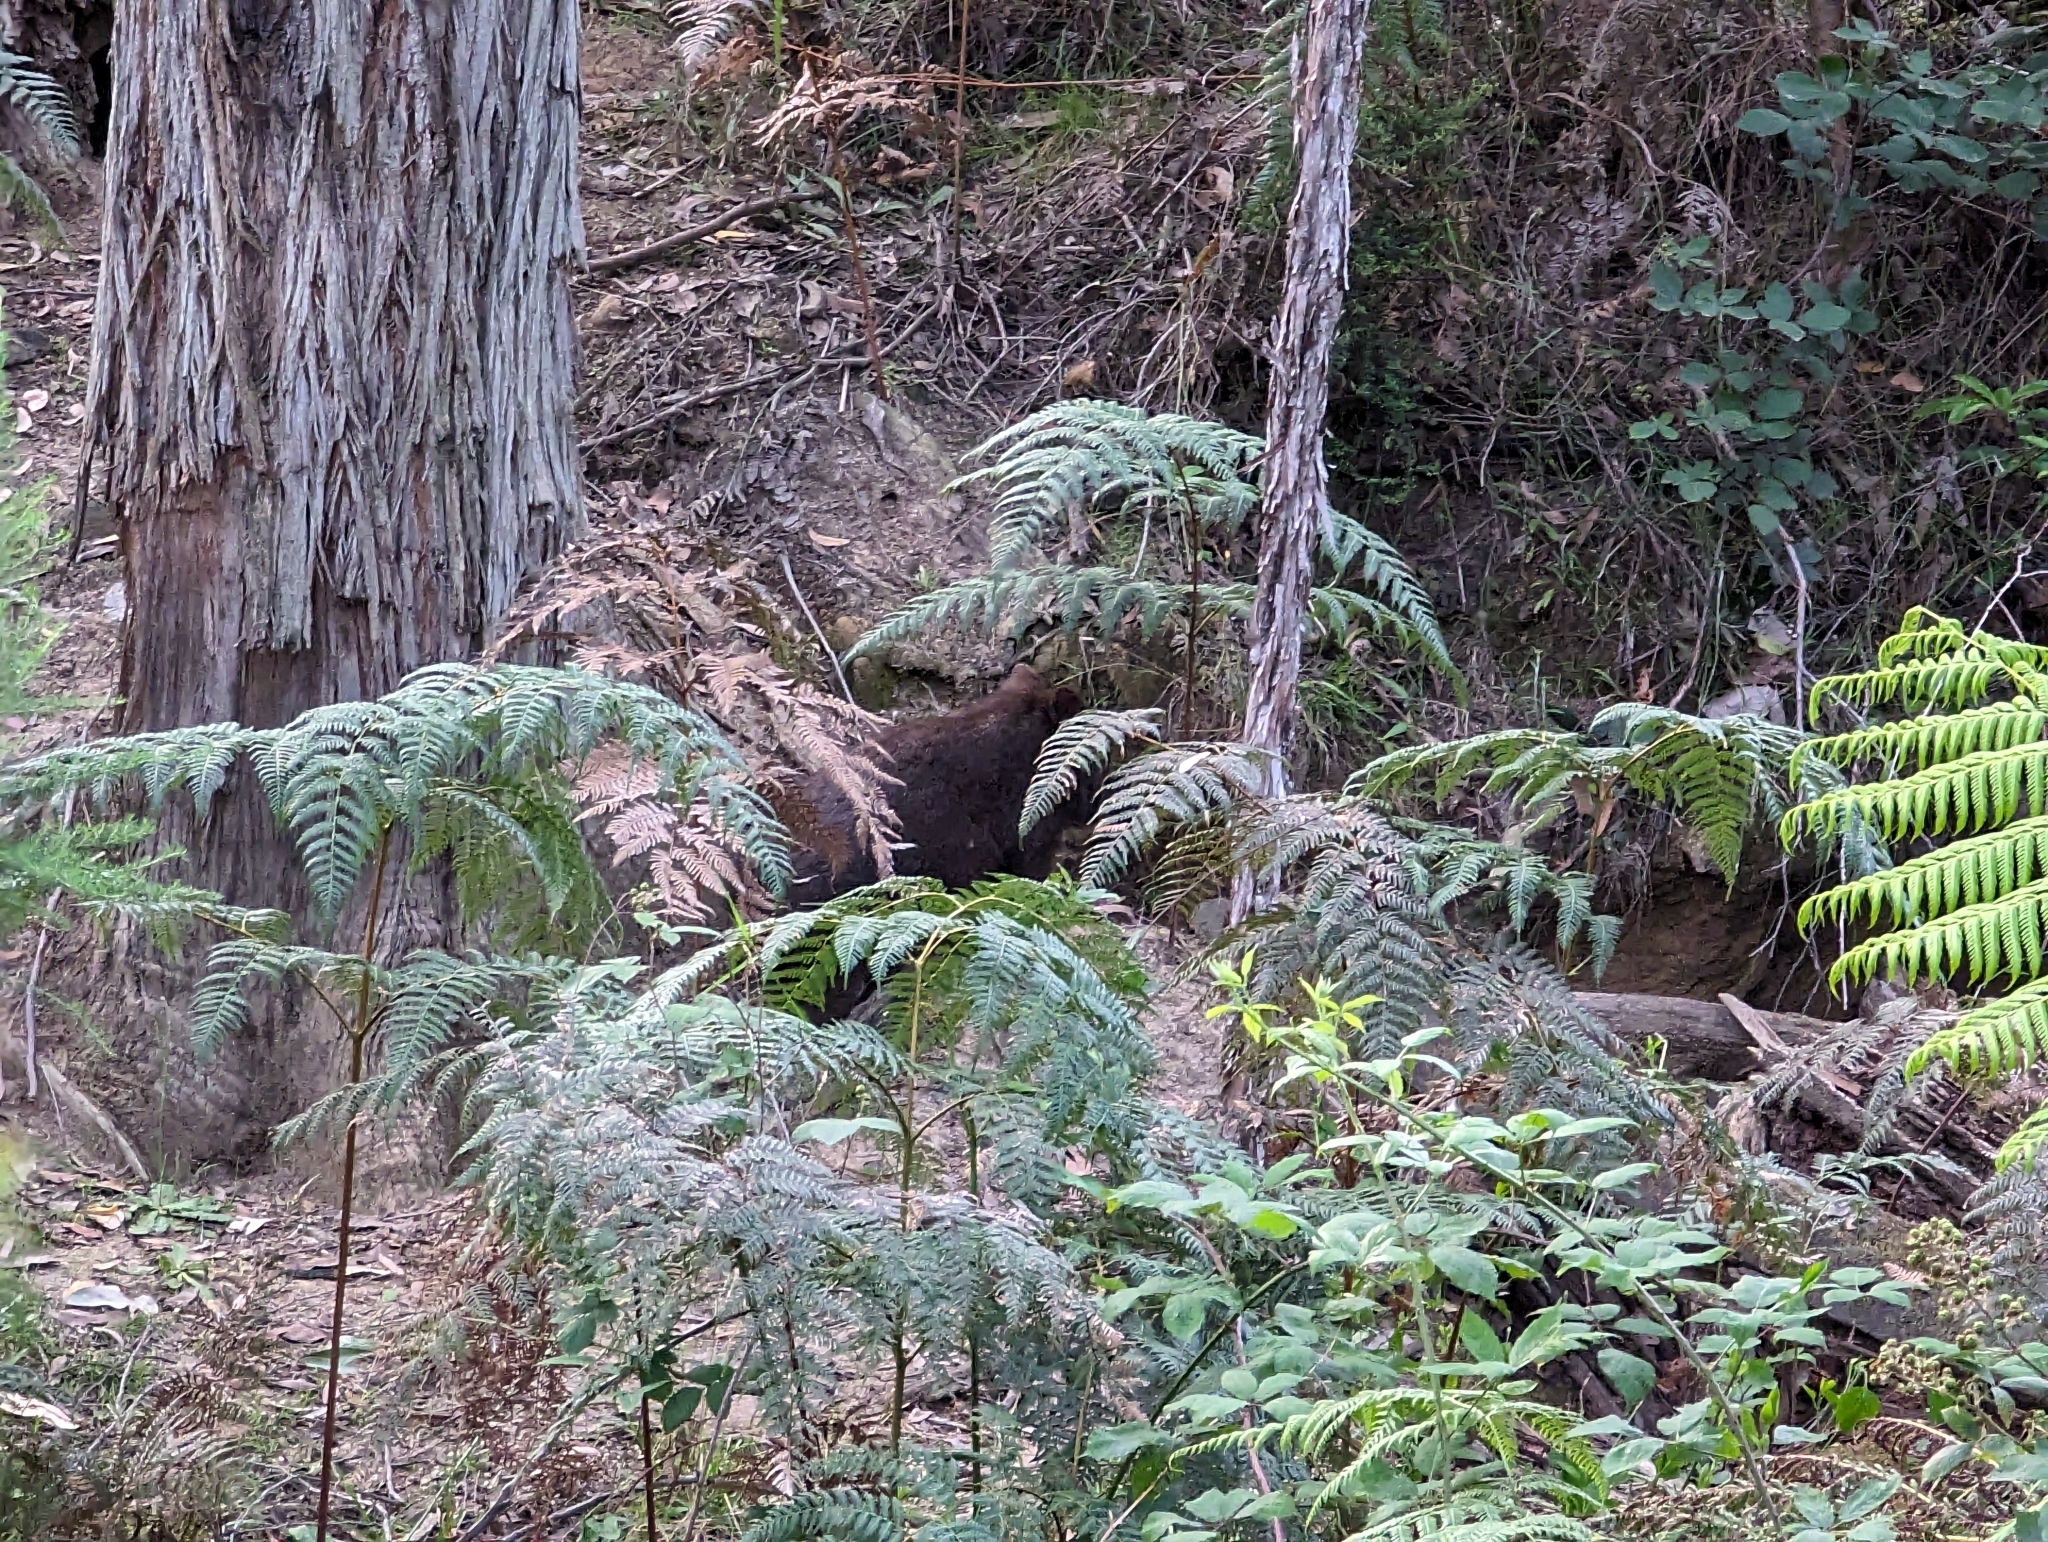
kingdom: Animalia
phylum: Chordata
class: Mammalia
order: Diprotodontia
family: Vombatidae
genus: Vombatus
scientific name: Vombatus ursinus
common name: Common wombat
